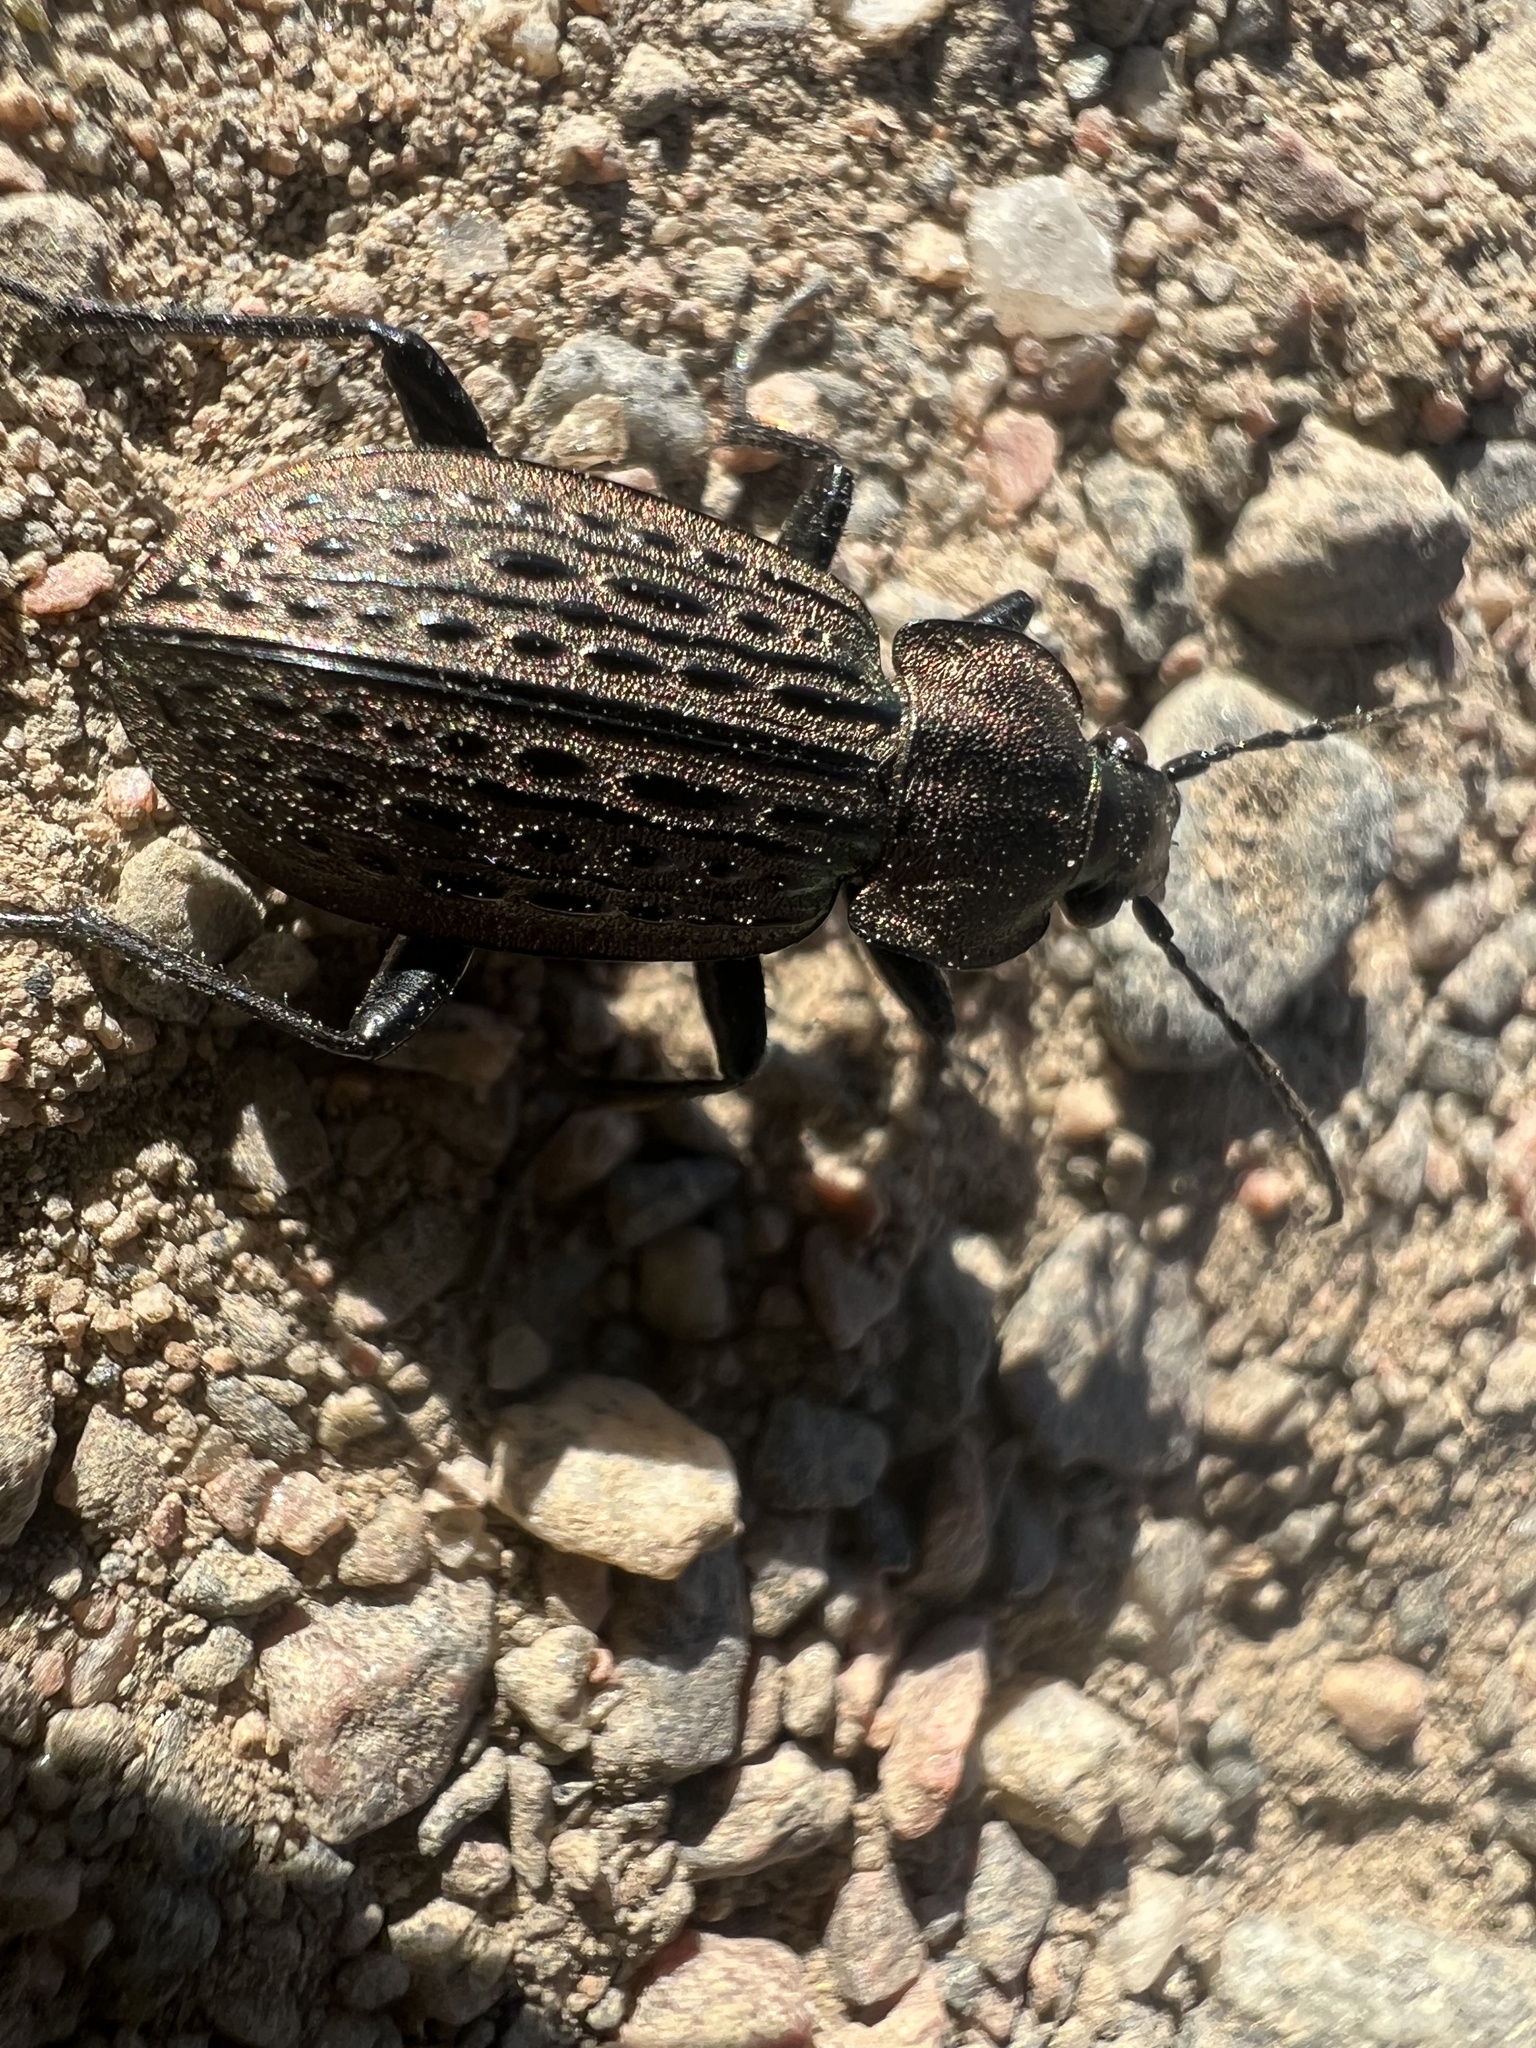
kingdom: Animalia
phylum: Arthropoda
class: Insecta
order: Coleoptera
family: Carabidae
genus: Carabus
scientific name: Carabus maeander
